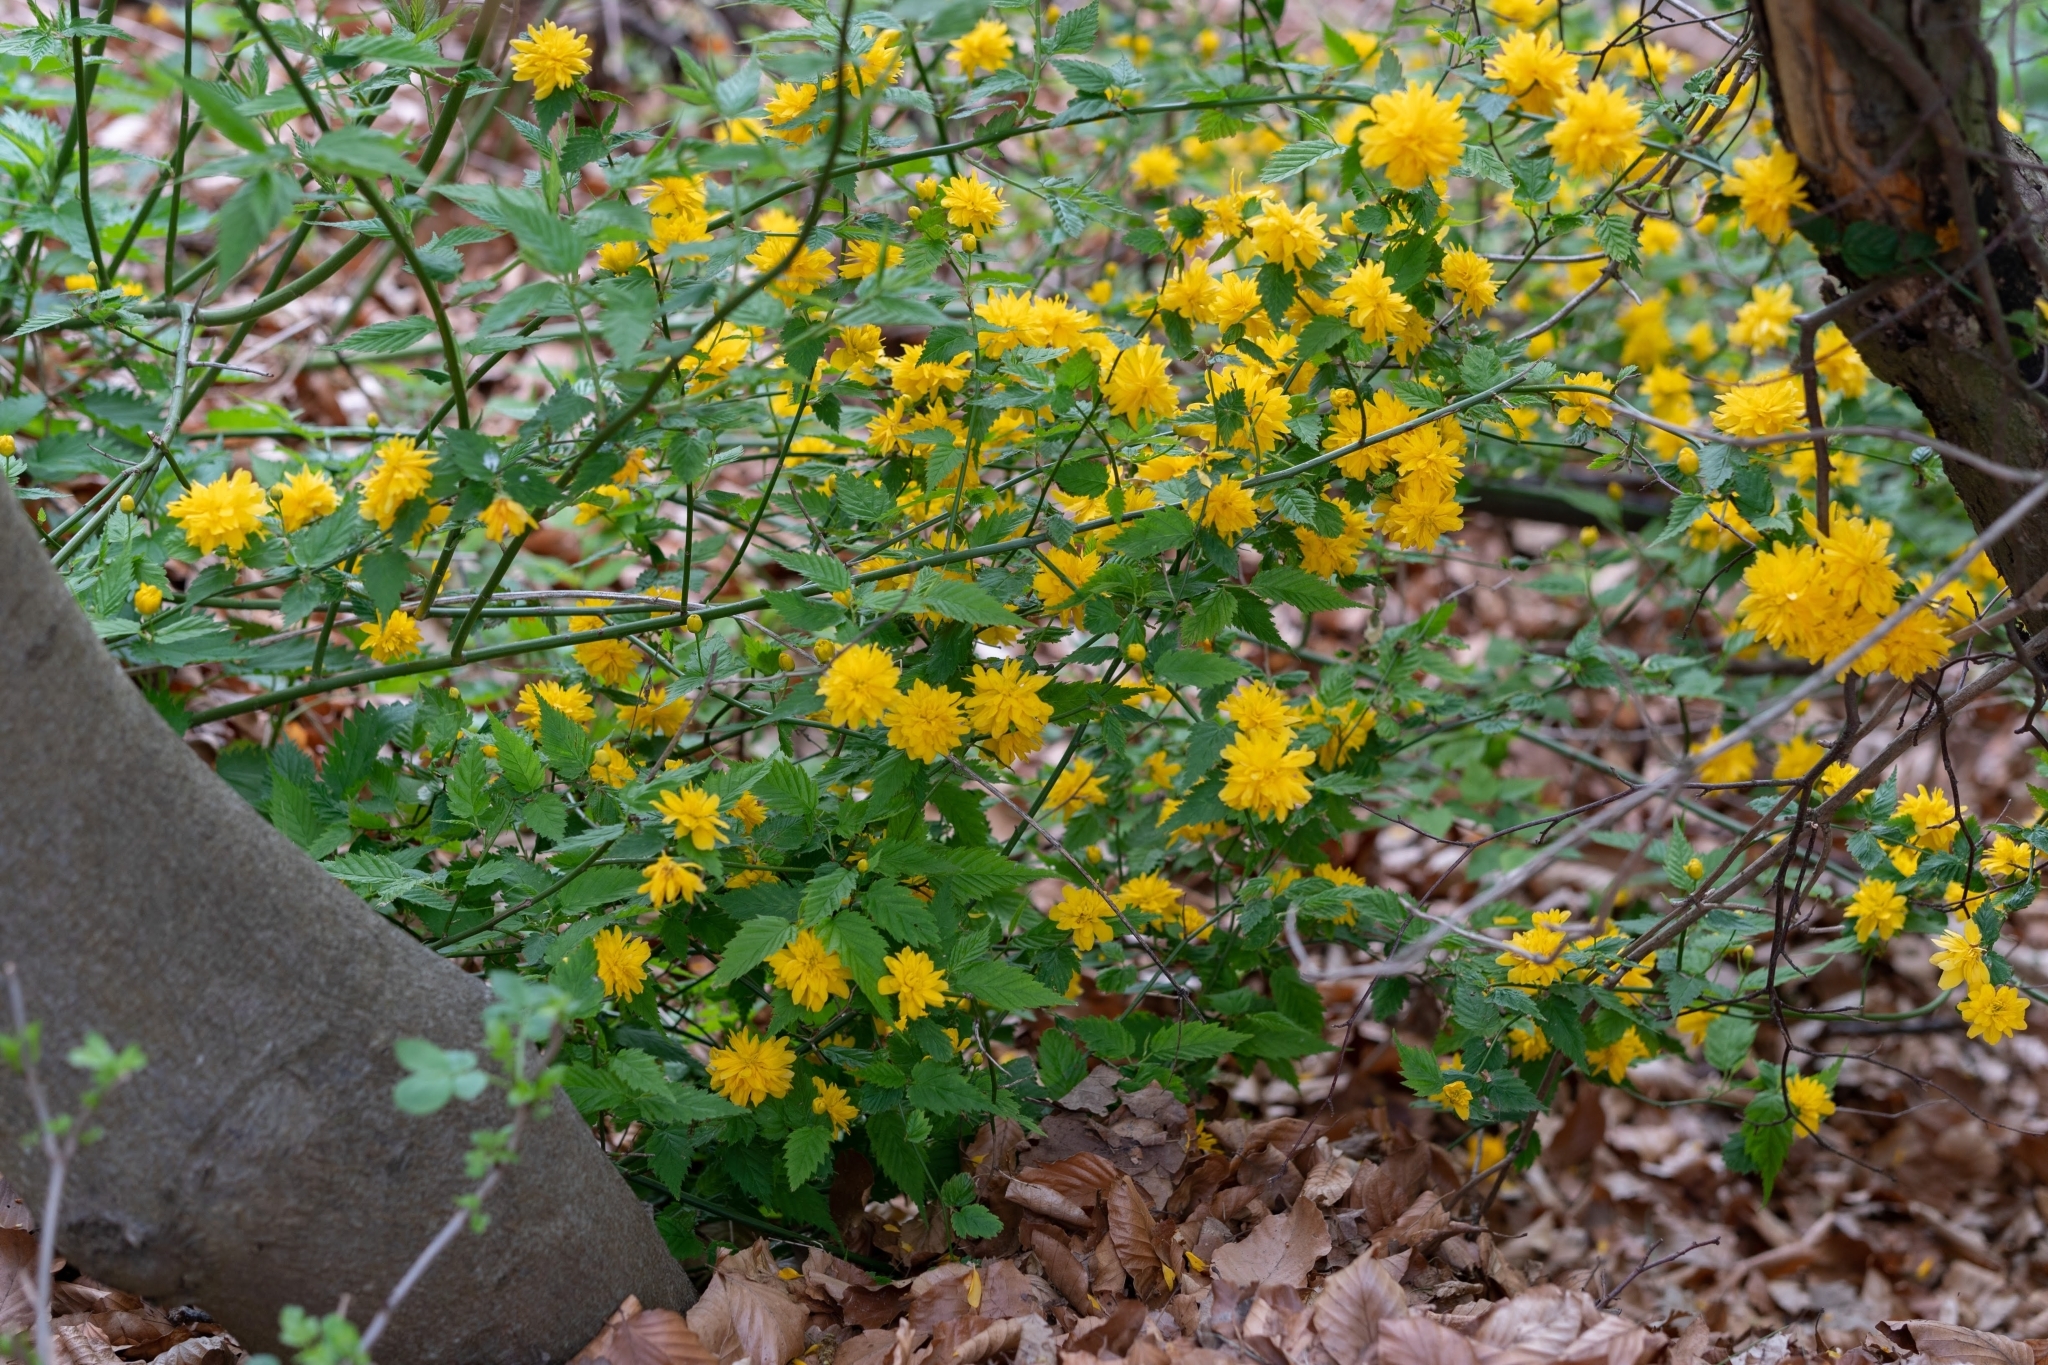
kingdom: Plantae
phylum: Tracheophyta
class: Magnoliopsida
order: Rosales
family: Rosaceae
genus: Kerria
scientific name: Kerria japonica
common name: Japanese kerria
